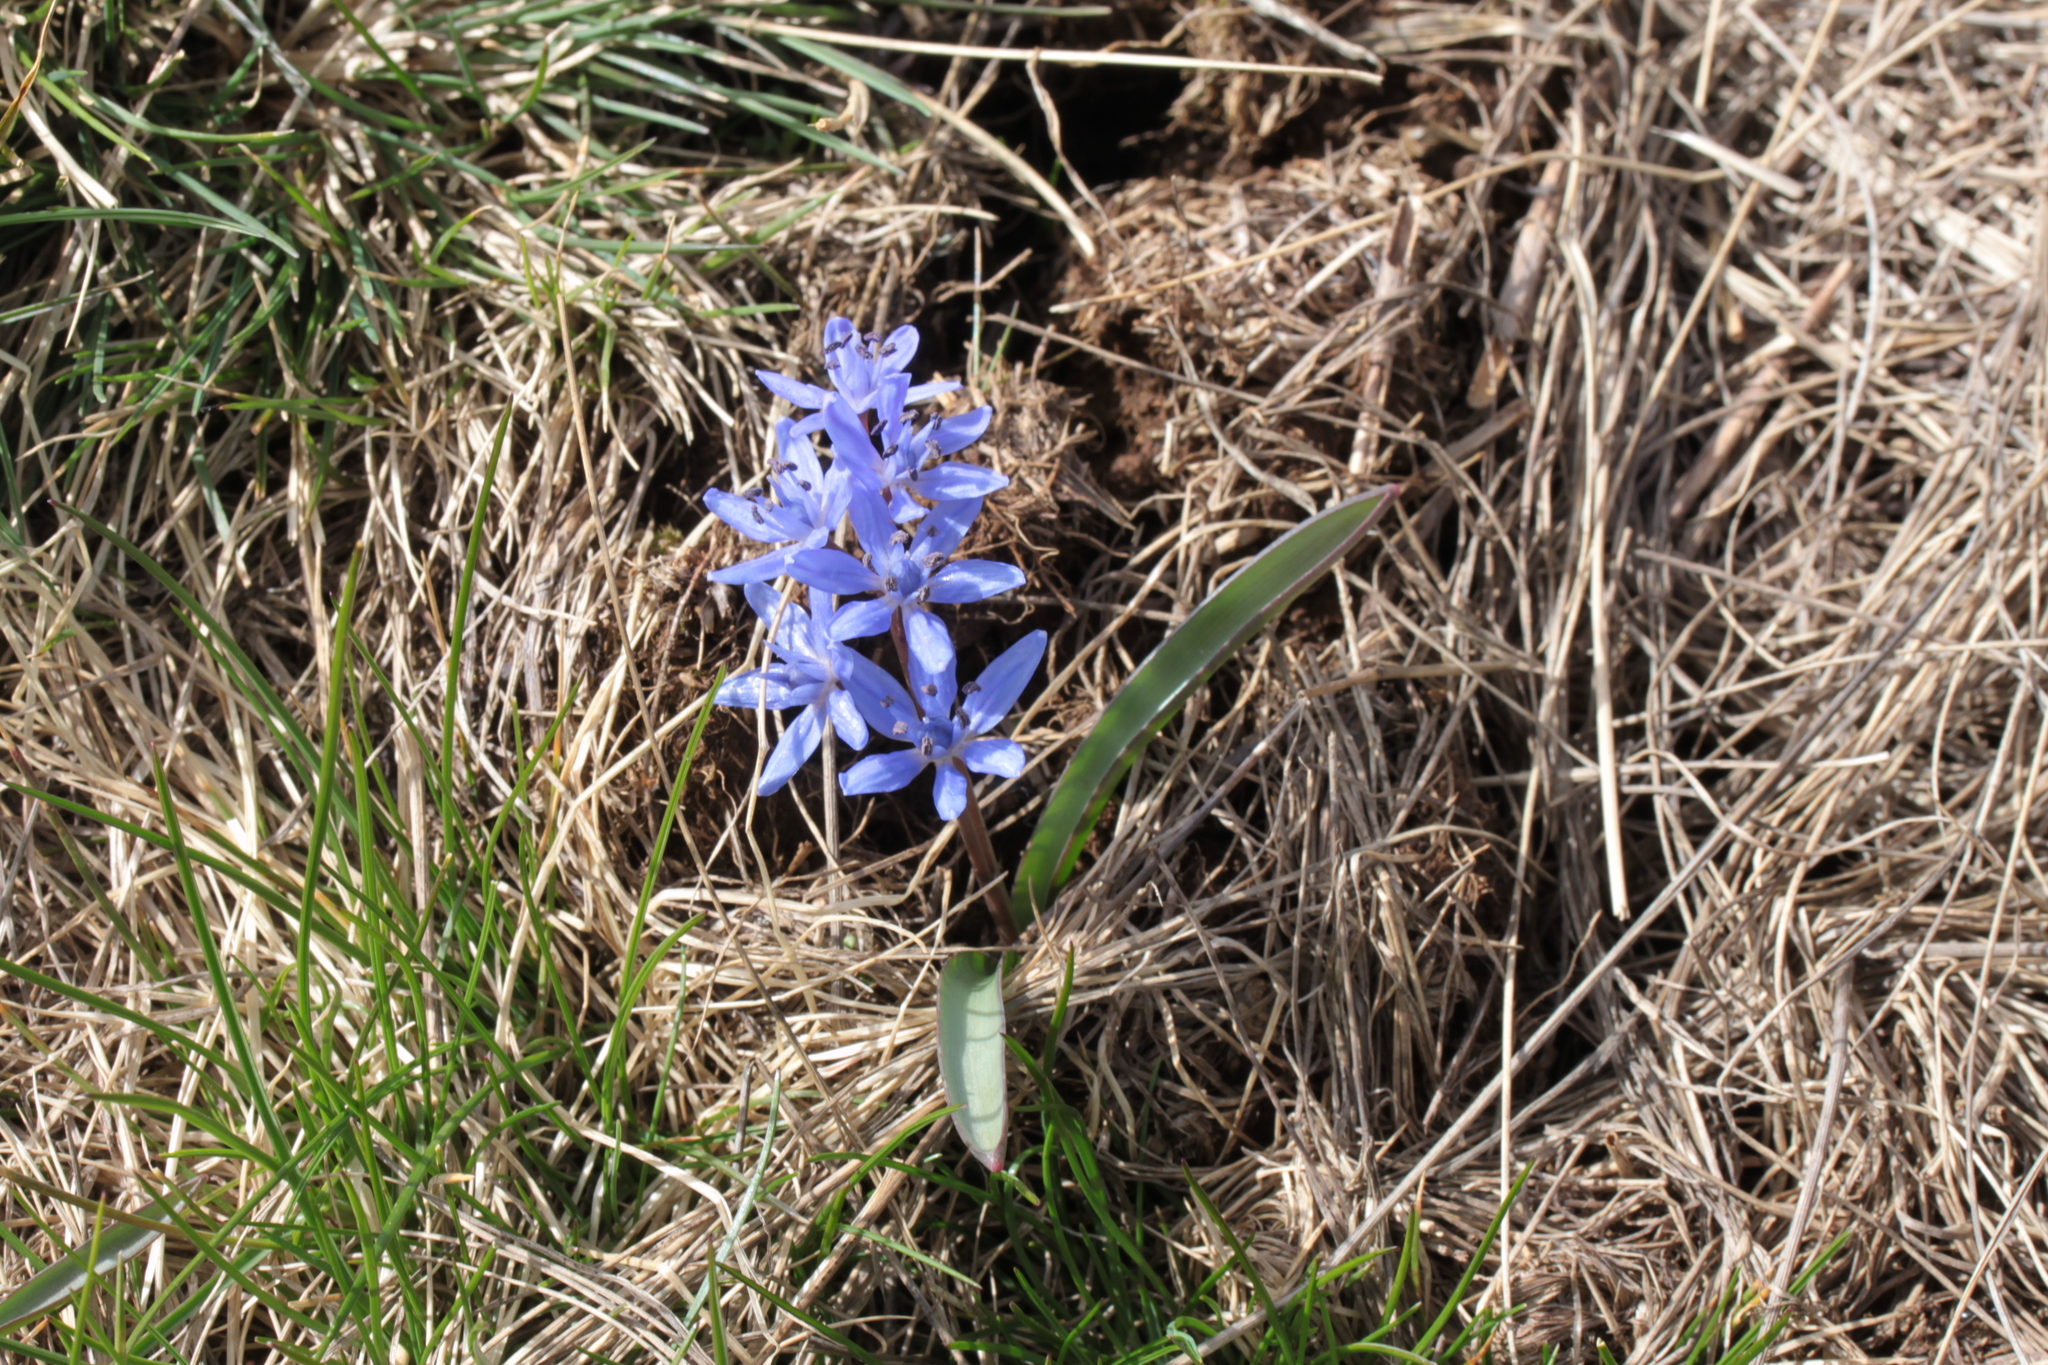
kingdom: Plantae
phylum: Tracheophyta
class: Liliopsida
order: Asparagales
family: Asparagaceae
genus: Scilla
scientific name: Scilla bifolia
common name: Alpine squill
